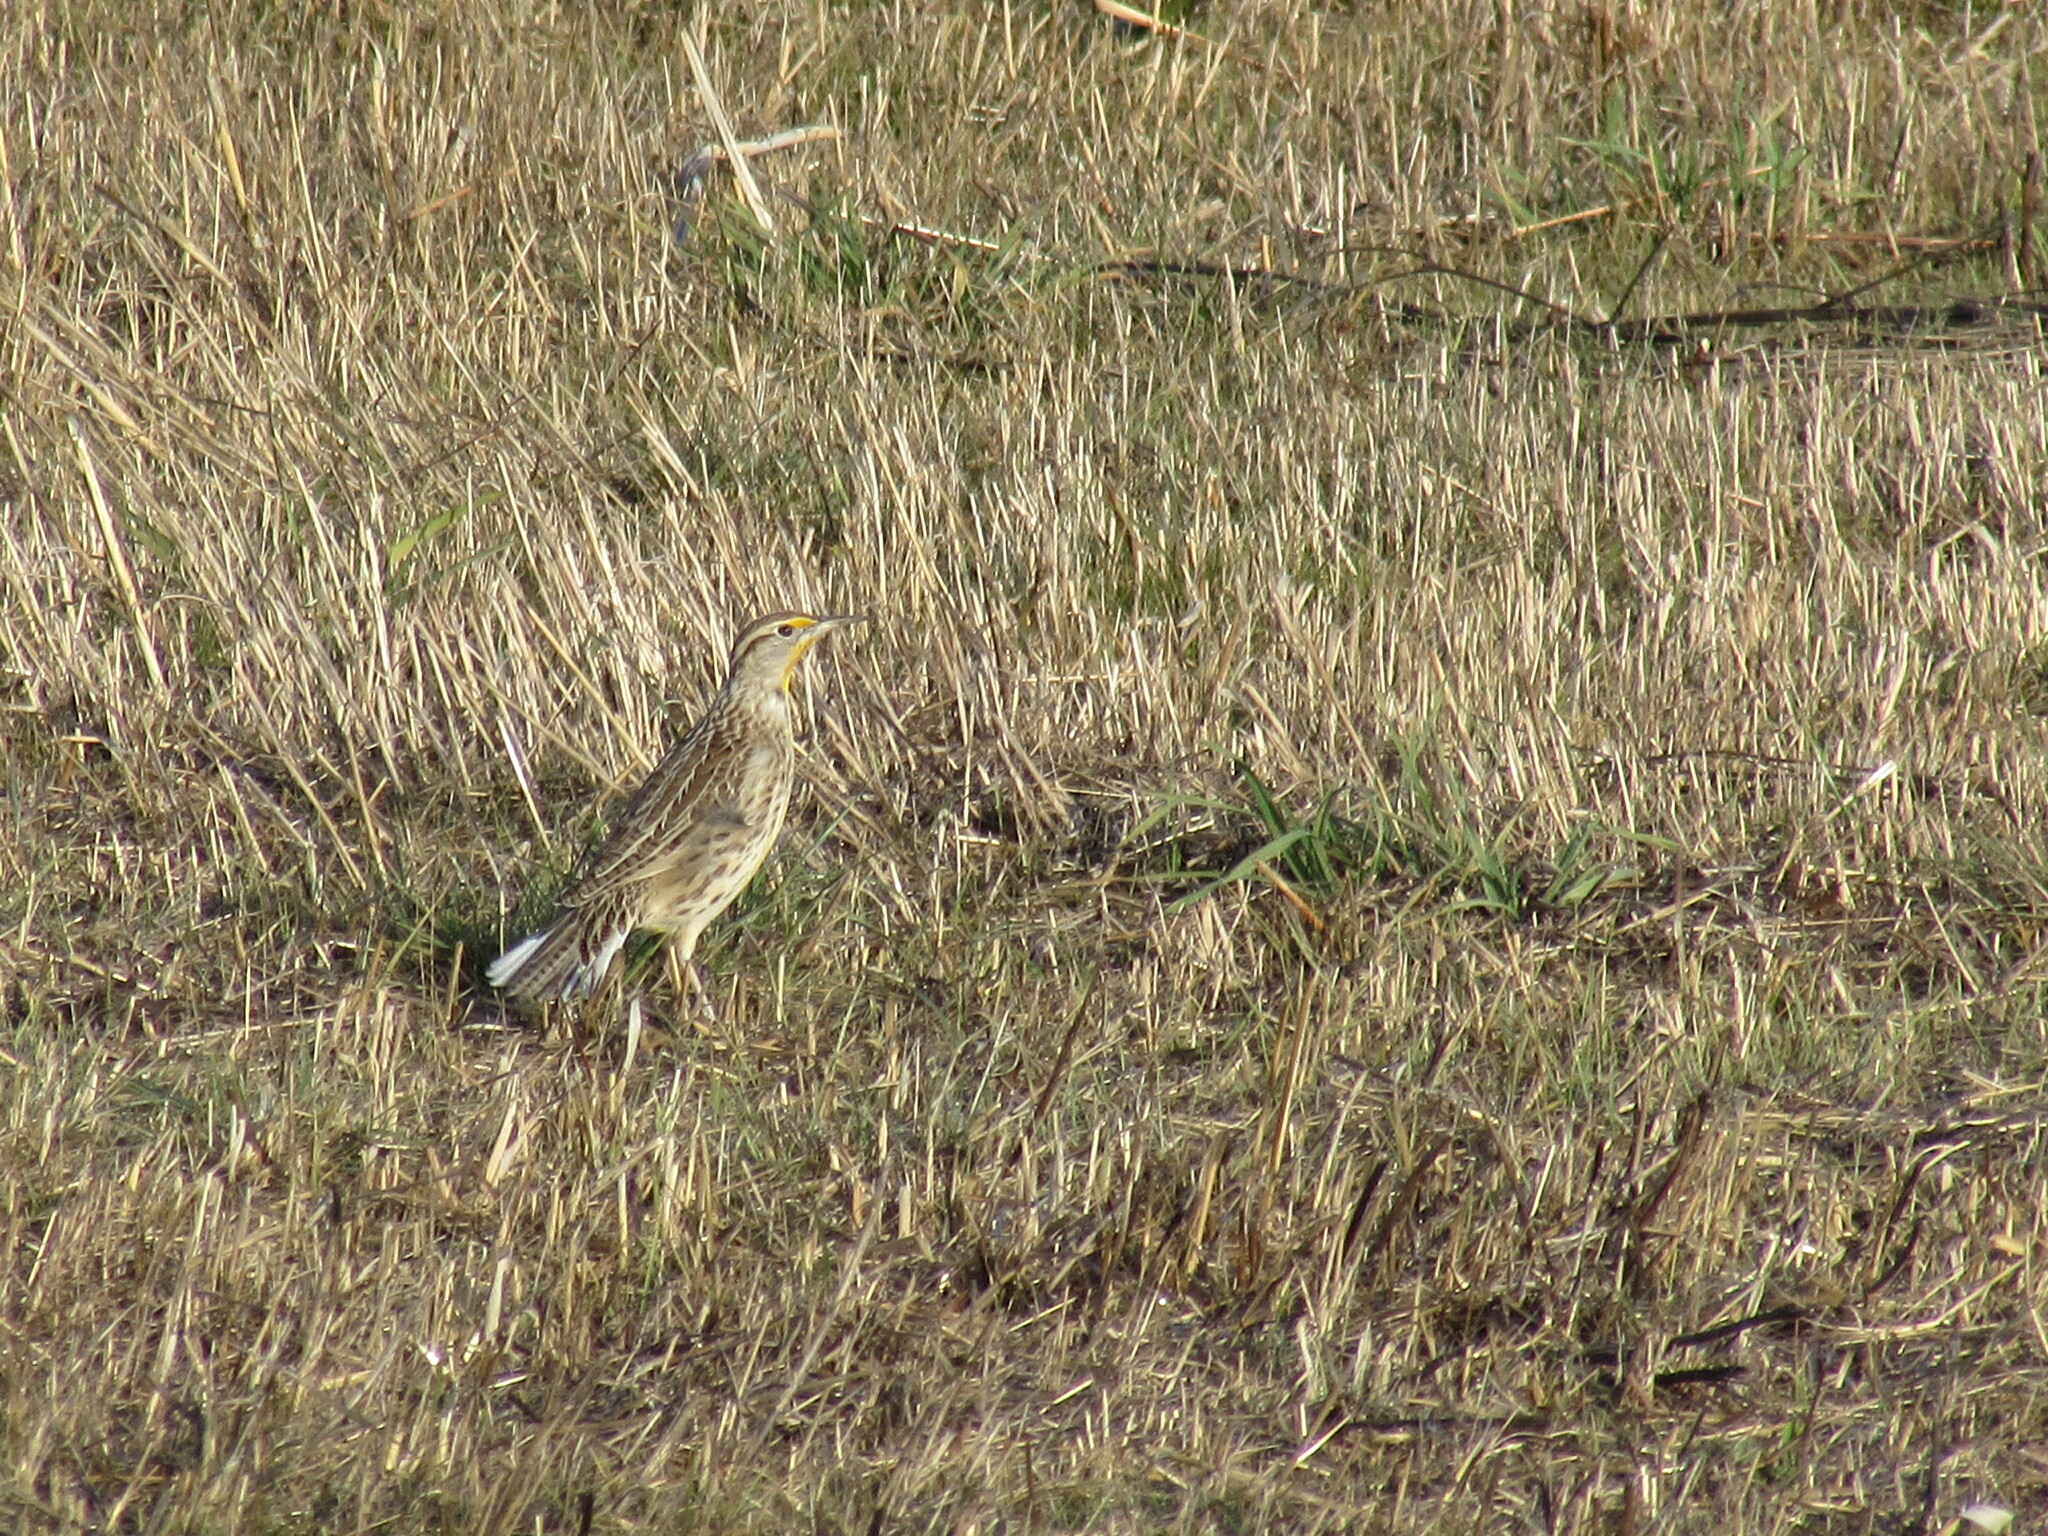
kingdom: Animalia
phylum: Chordata
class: Aves
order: Passeriformes
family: Icteridae
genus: Sturnella
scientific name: Sturnella neglecta
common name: Western meadowlark
